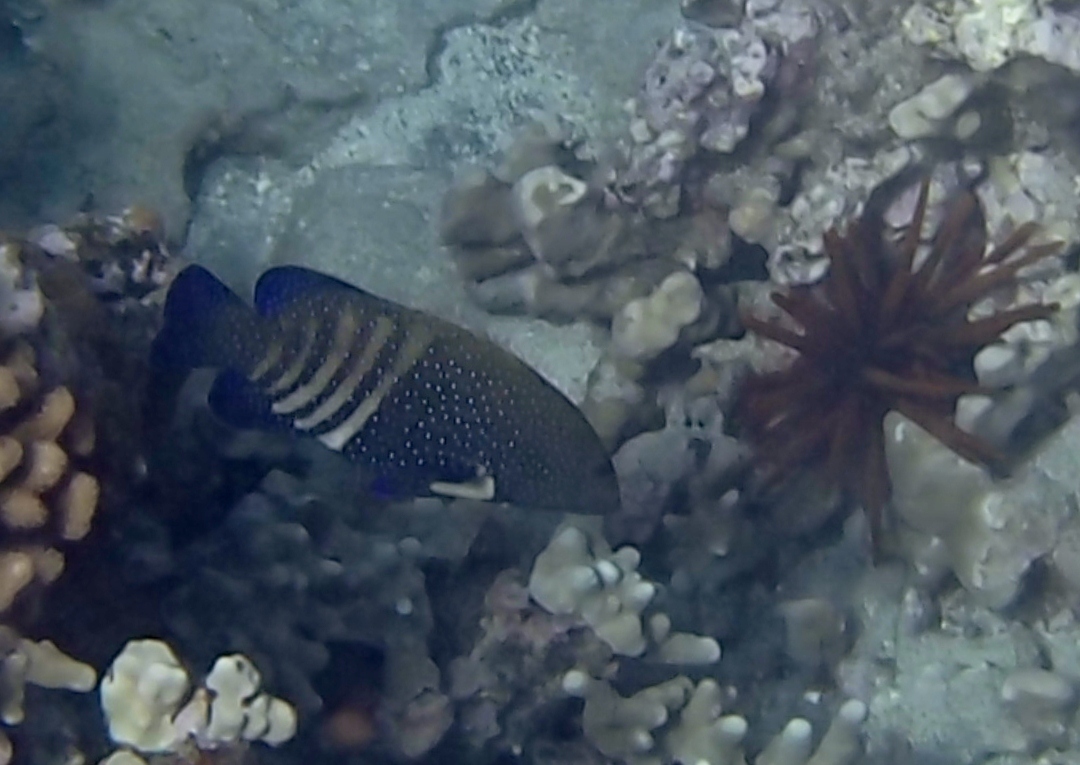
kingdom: Animalia
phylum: Chordata
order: Perciformes
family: Serranidae
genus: Cephalopholis
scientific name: Cephalopholis argus
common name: Peacock grouper
